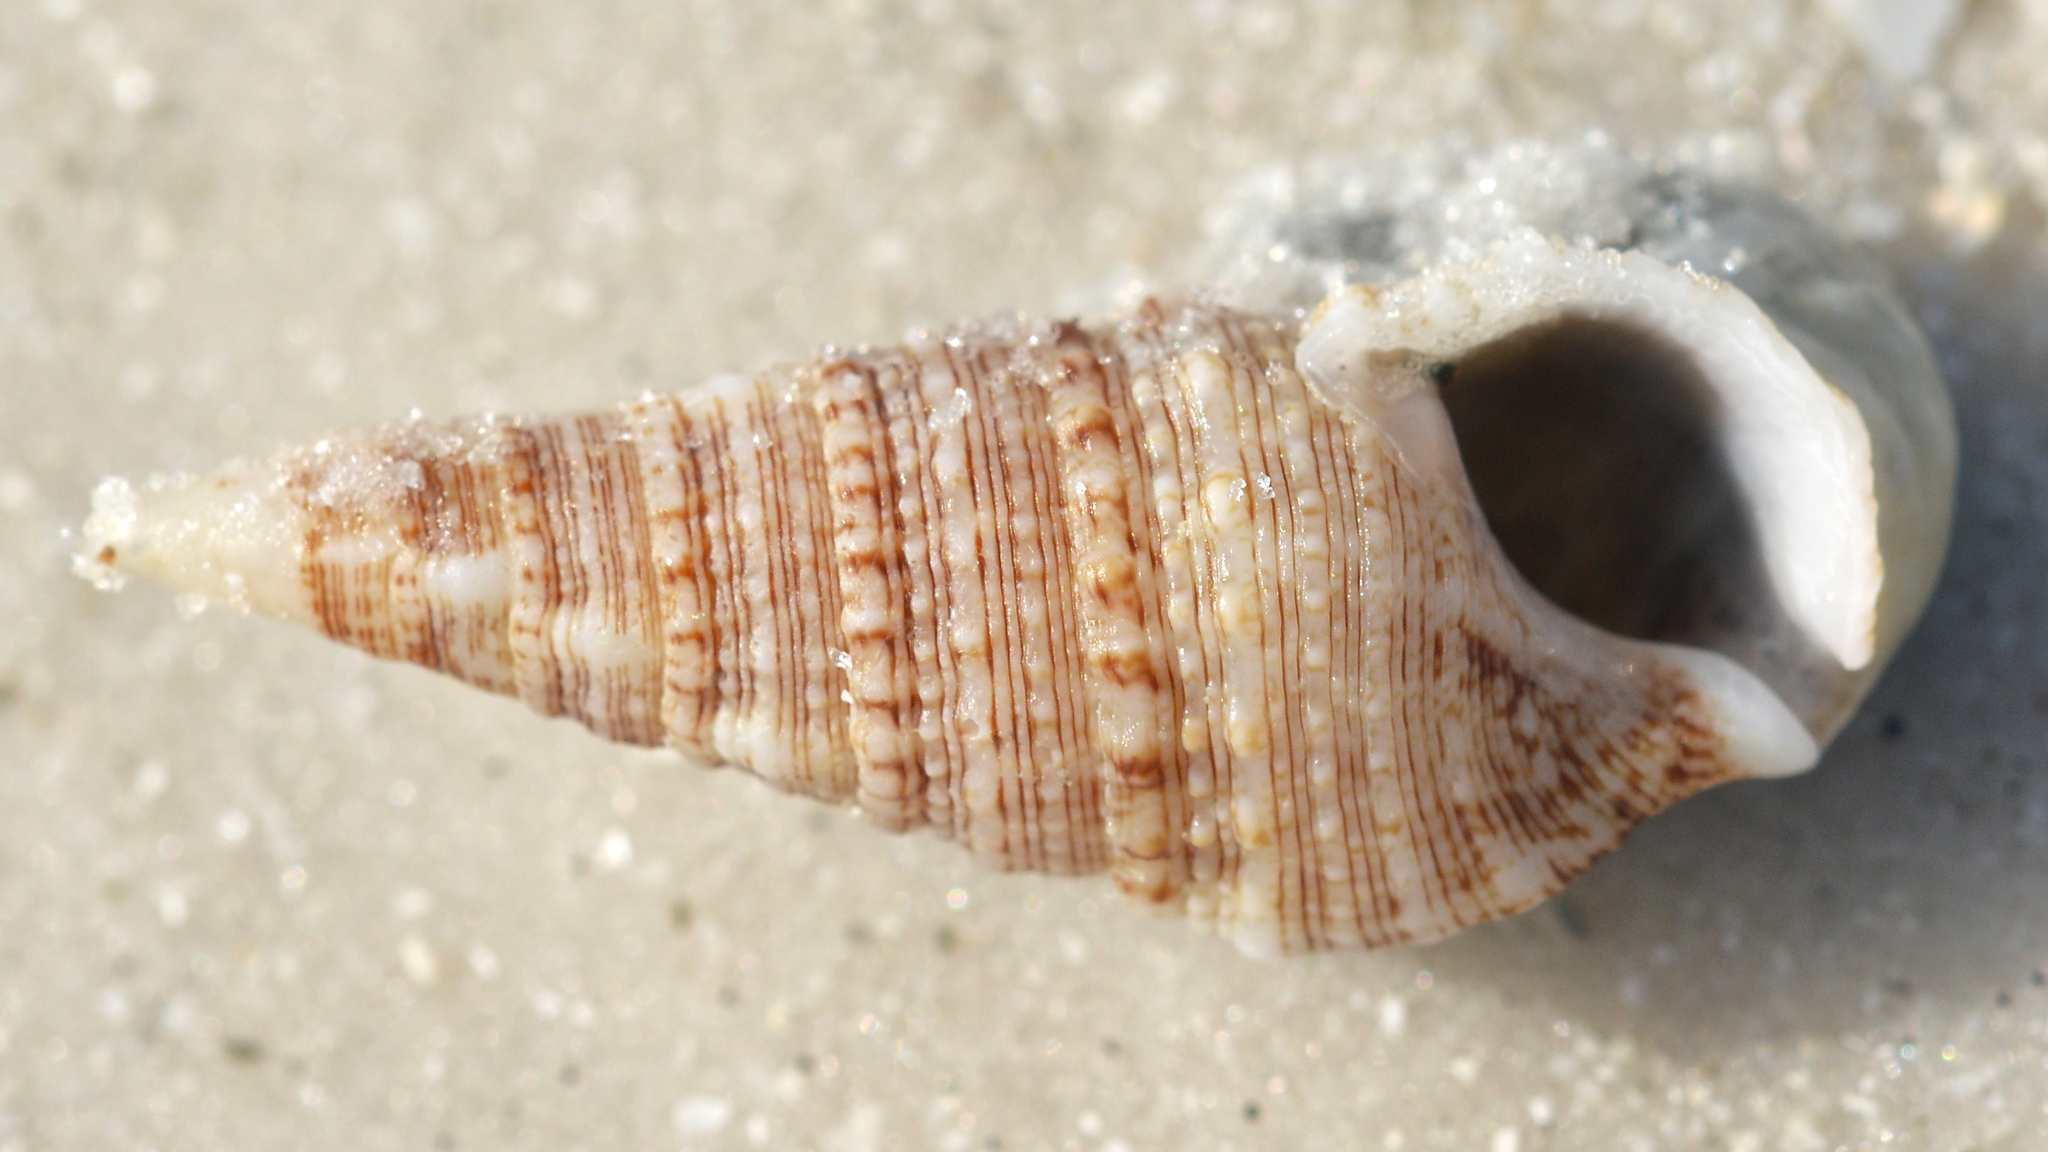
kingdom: Animalia
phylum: Mollusca
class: Gastropoda
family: Cerithiidae
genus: Cerithium
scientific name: Cerithium atratum
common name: Dark cerith
